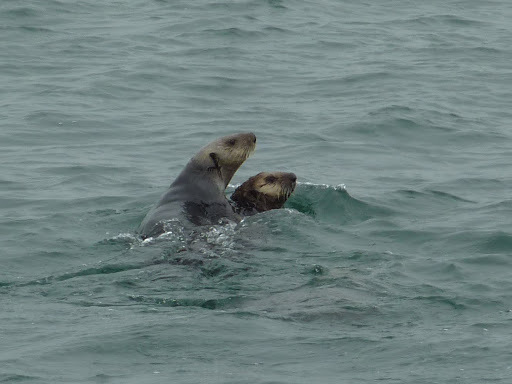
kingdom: Animalia
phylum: Chordata
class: Mammalia
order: Carnivora
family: Mustelidae
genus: Enhydra
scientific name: Enhydra lutris
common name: Sea otter
